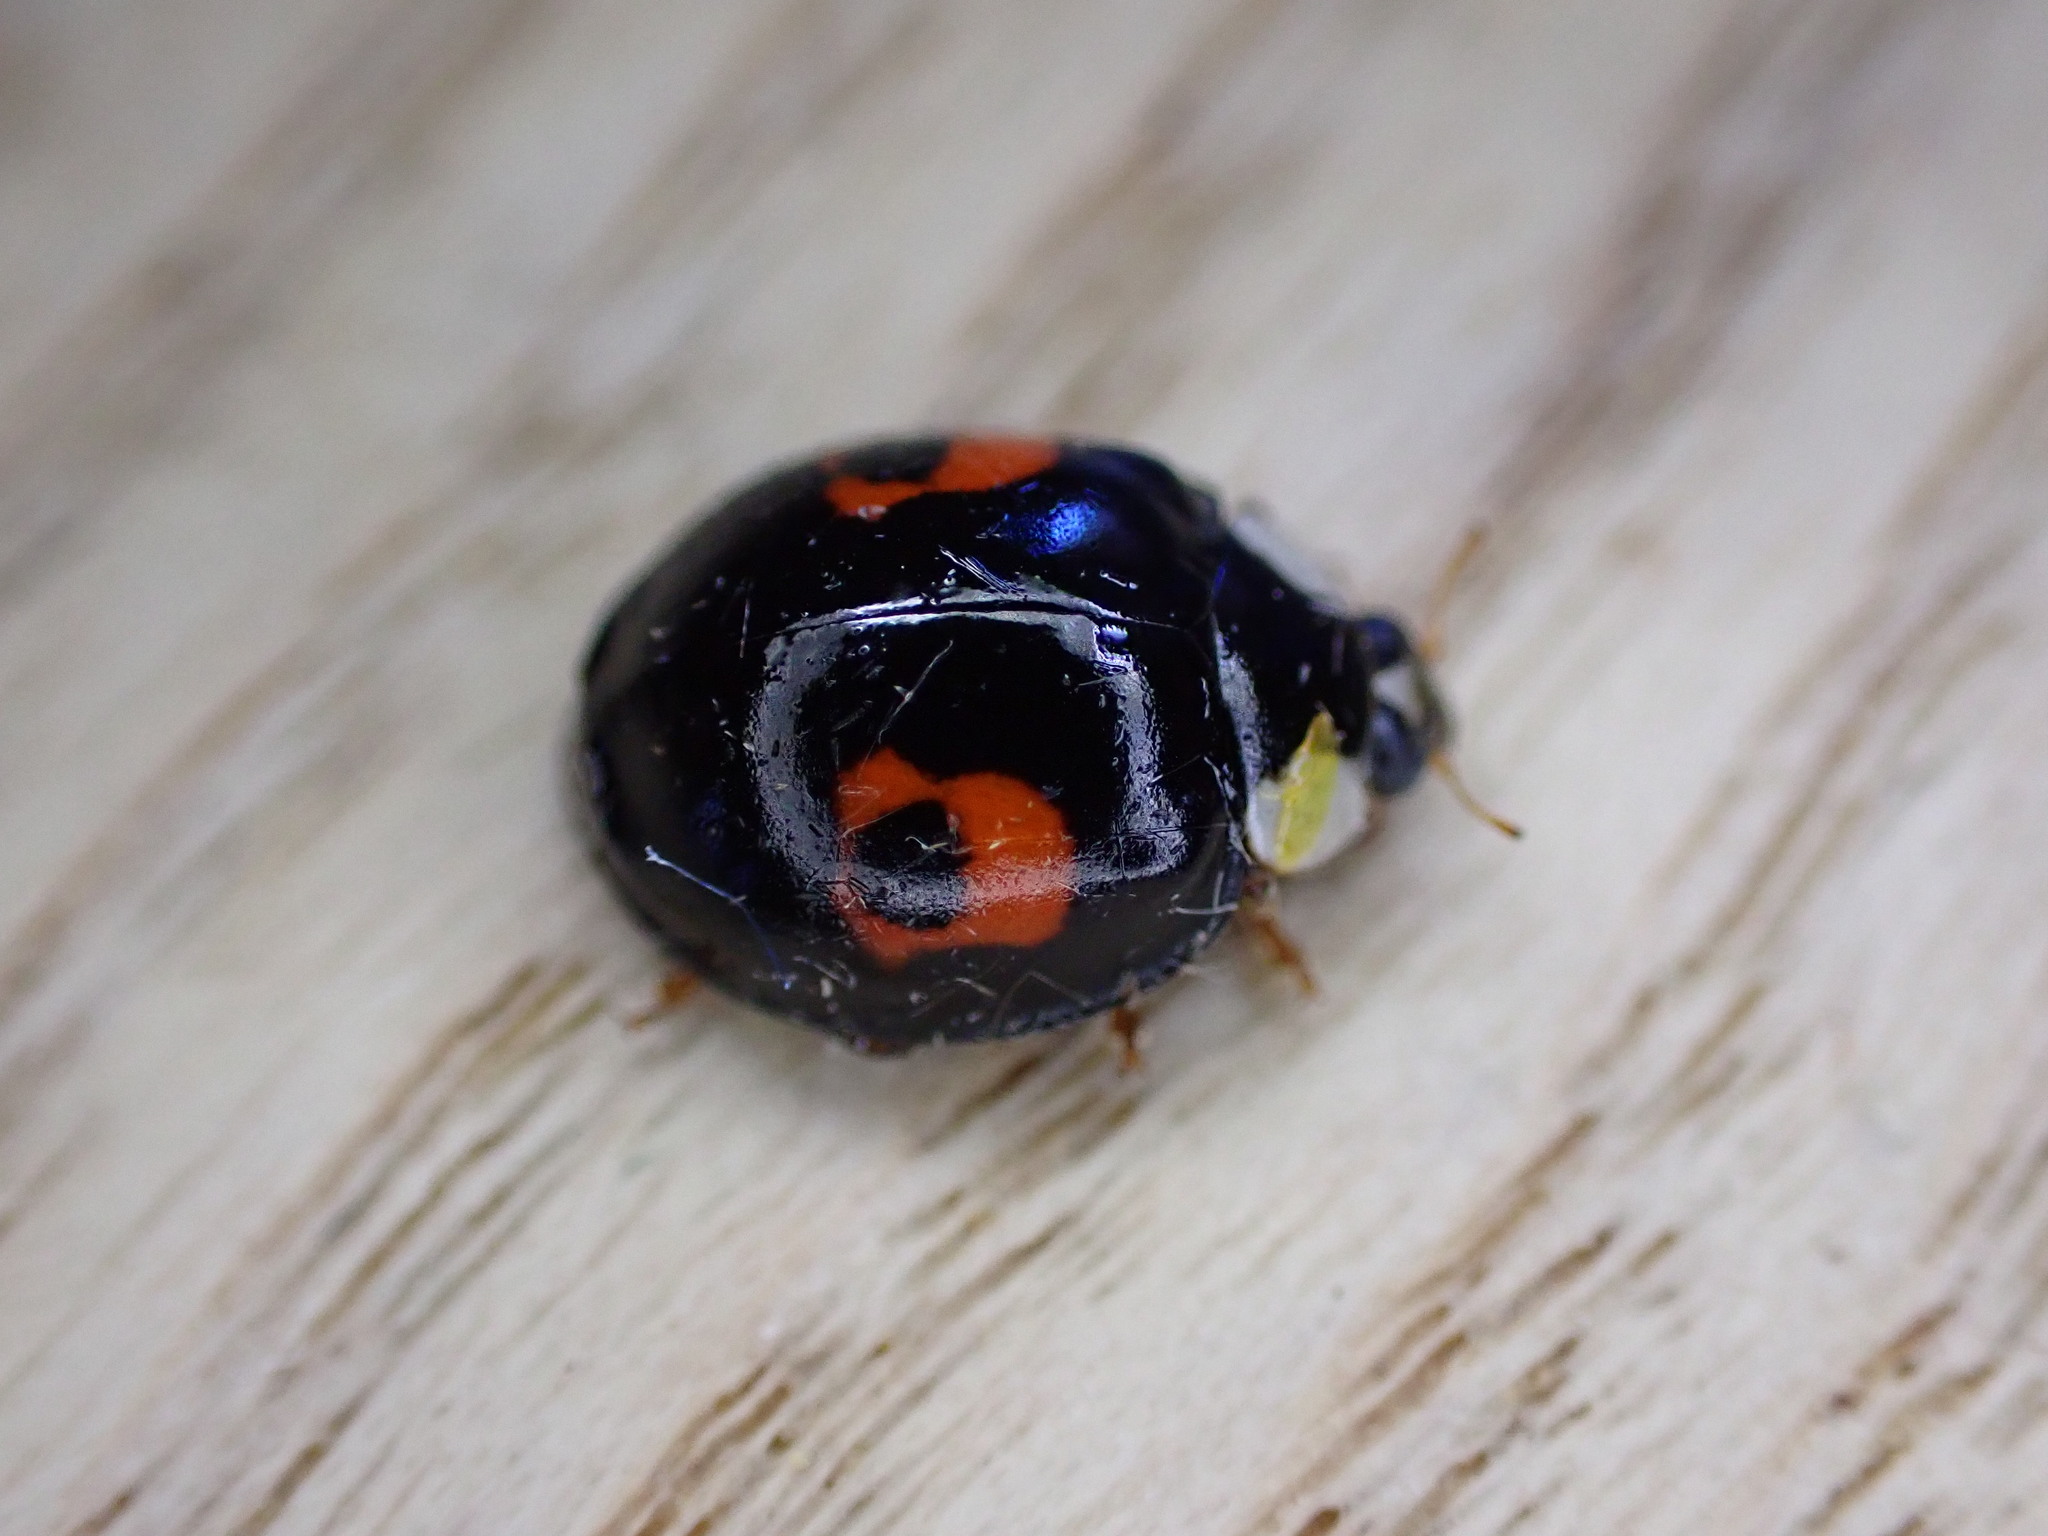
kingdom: Animalia
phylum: Arthropoda
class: Insecta
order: Coleoptera
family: Coccinellidae
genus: Harmonia
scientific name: Harmonia axyridis
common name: Harlequin ladybird
